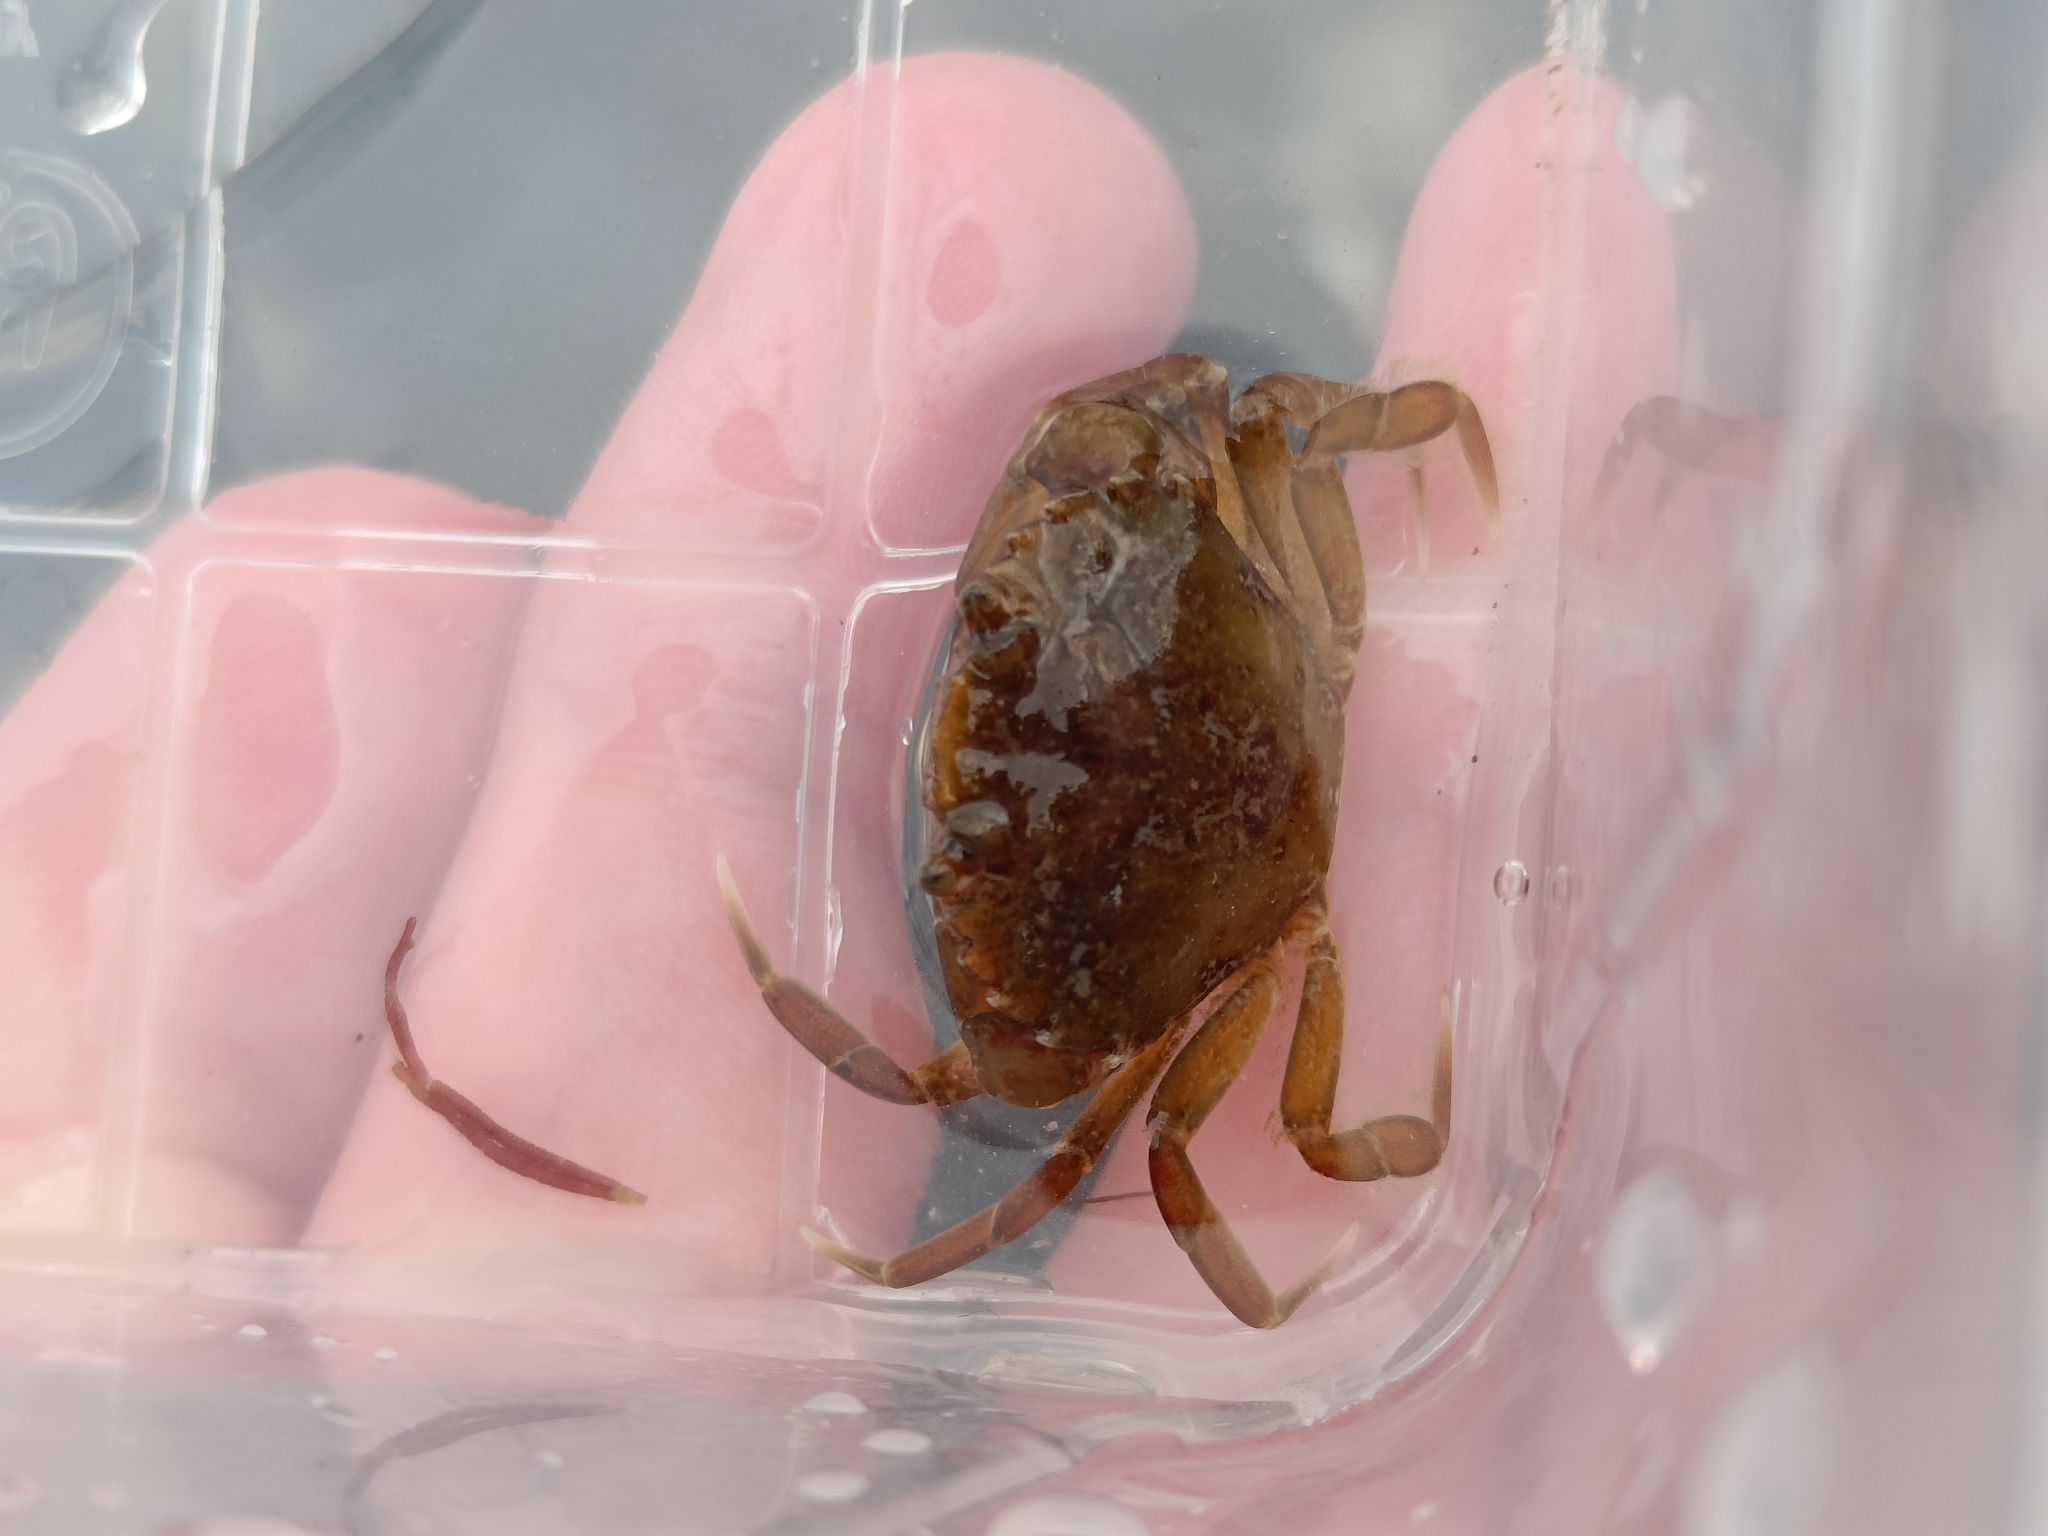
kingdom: Animalia
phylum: Arthropoda
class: Malacostraca
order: Decapoda
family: Carcinidae
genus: Carcinus
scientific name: Carcinus maenas
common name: European green crab
